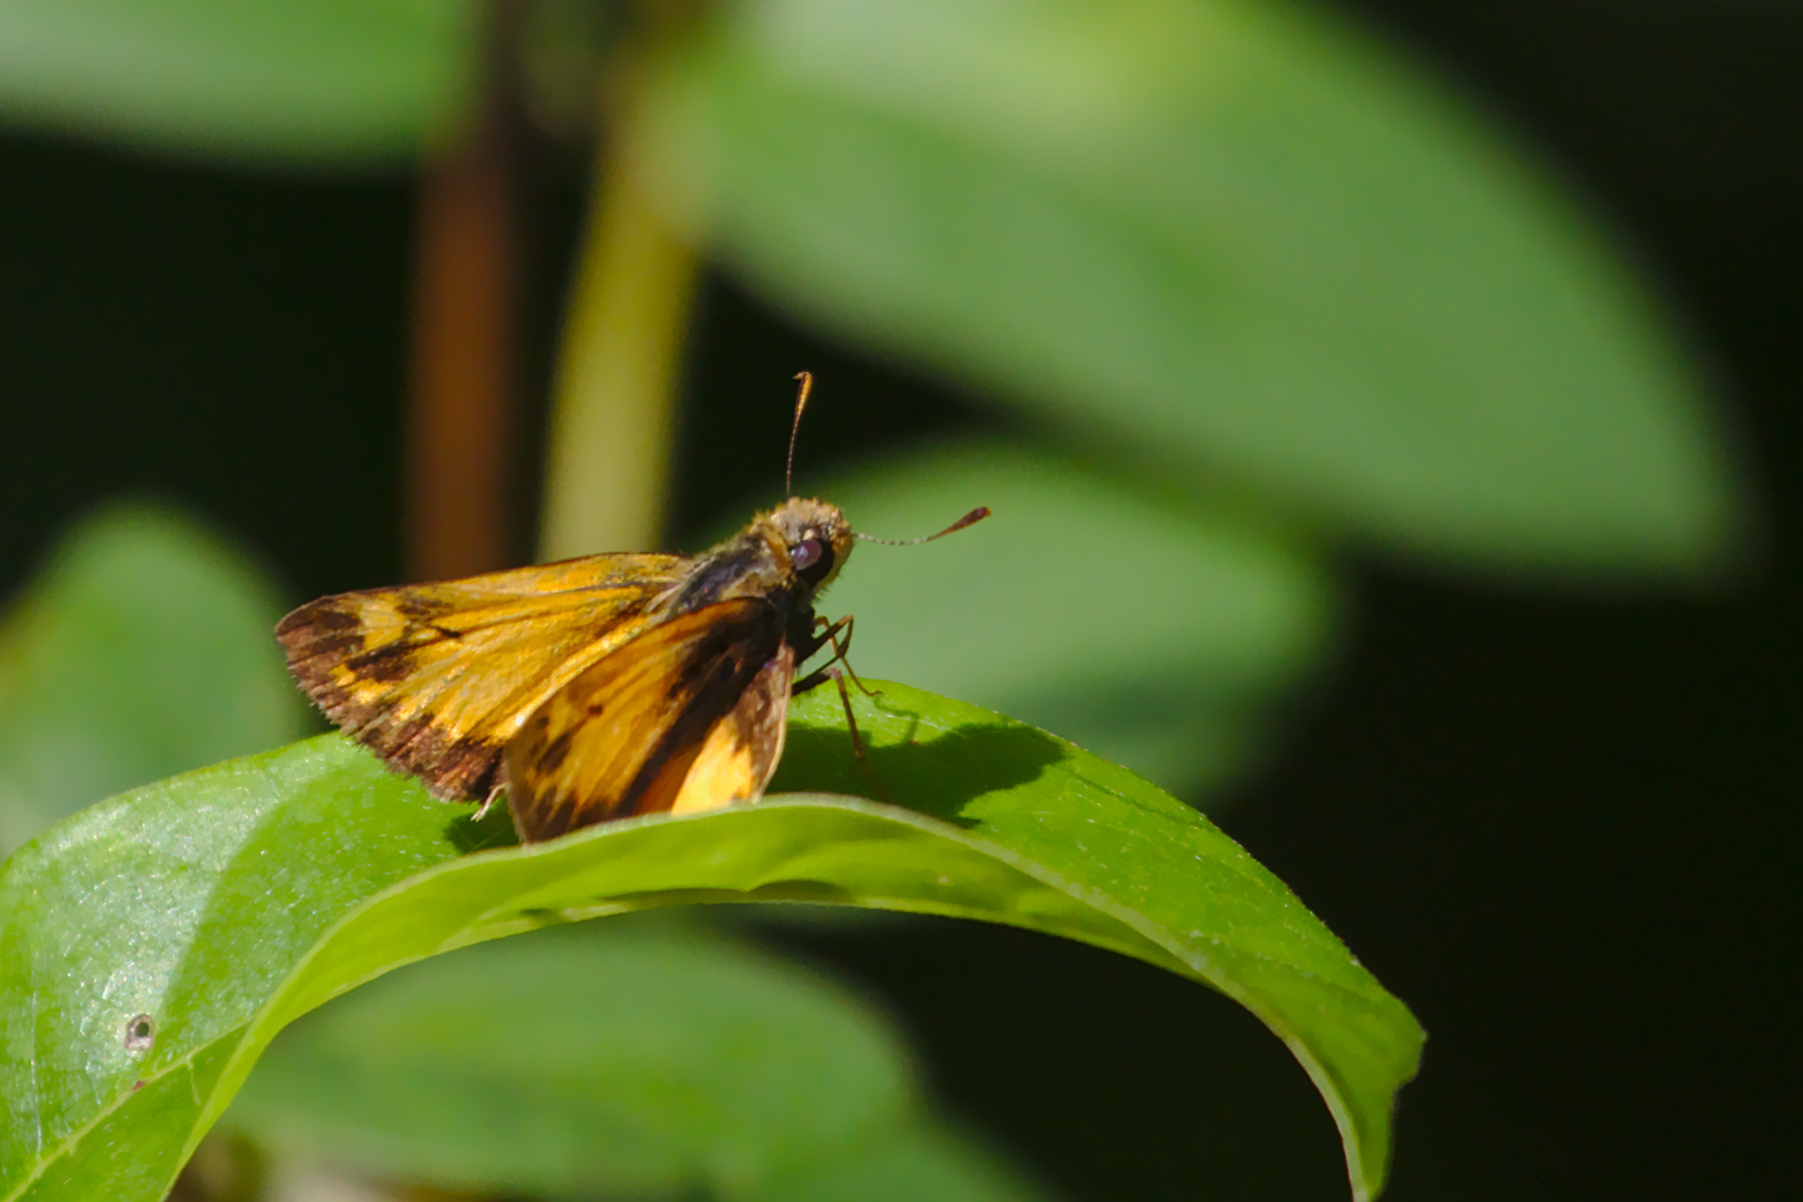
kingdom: Animalia
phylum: Arthropoda
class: Insecta
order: Lepidoptera
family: Hesperiidae
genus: Lon
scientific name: Lon zabulon
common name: Zabulon skipper
